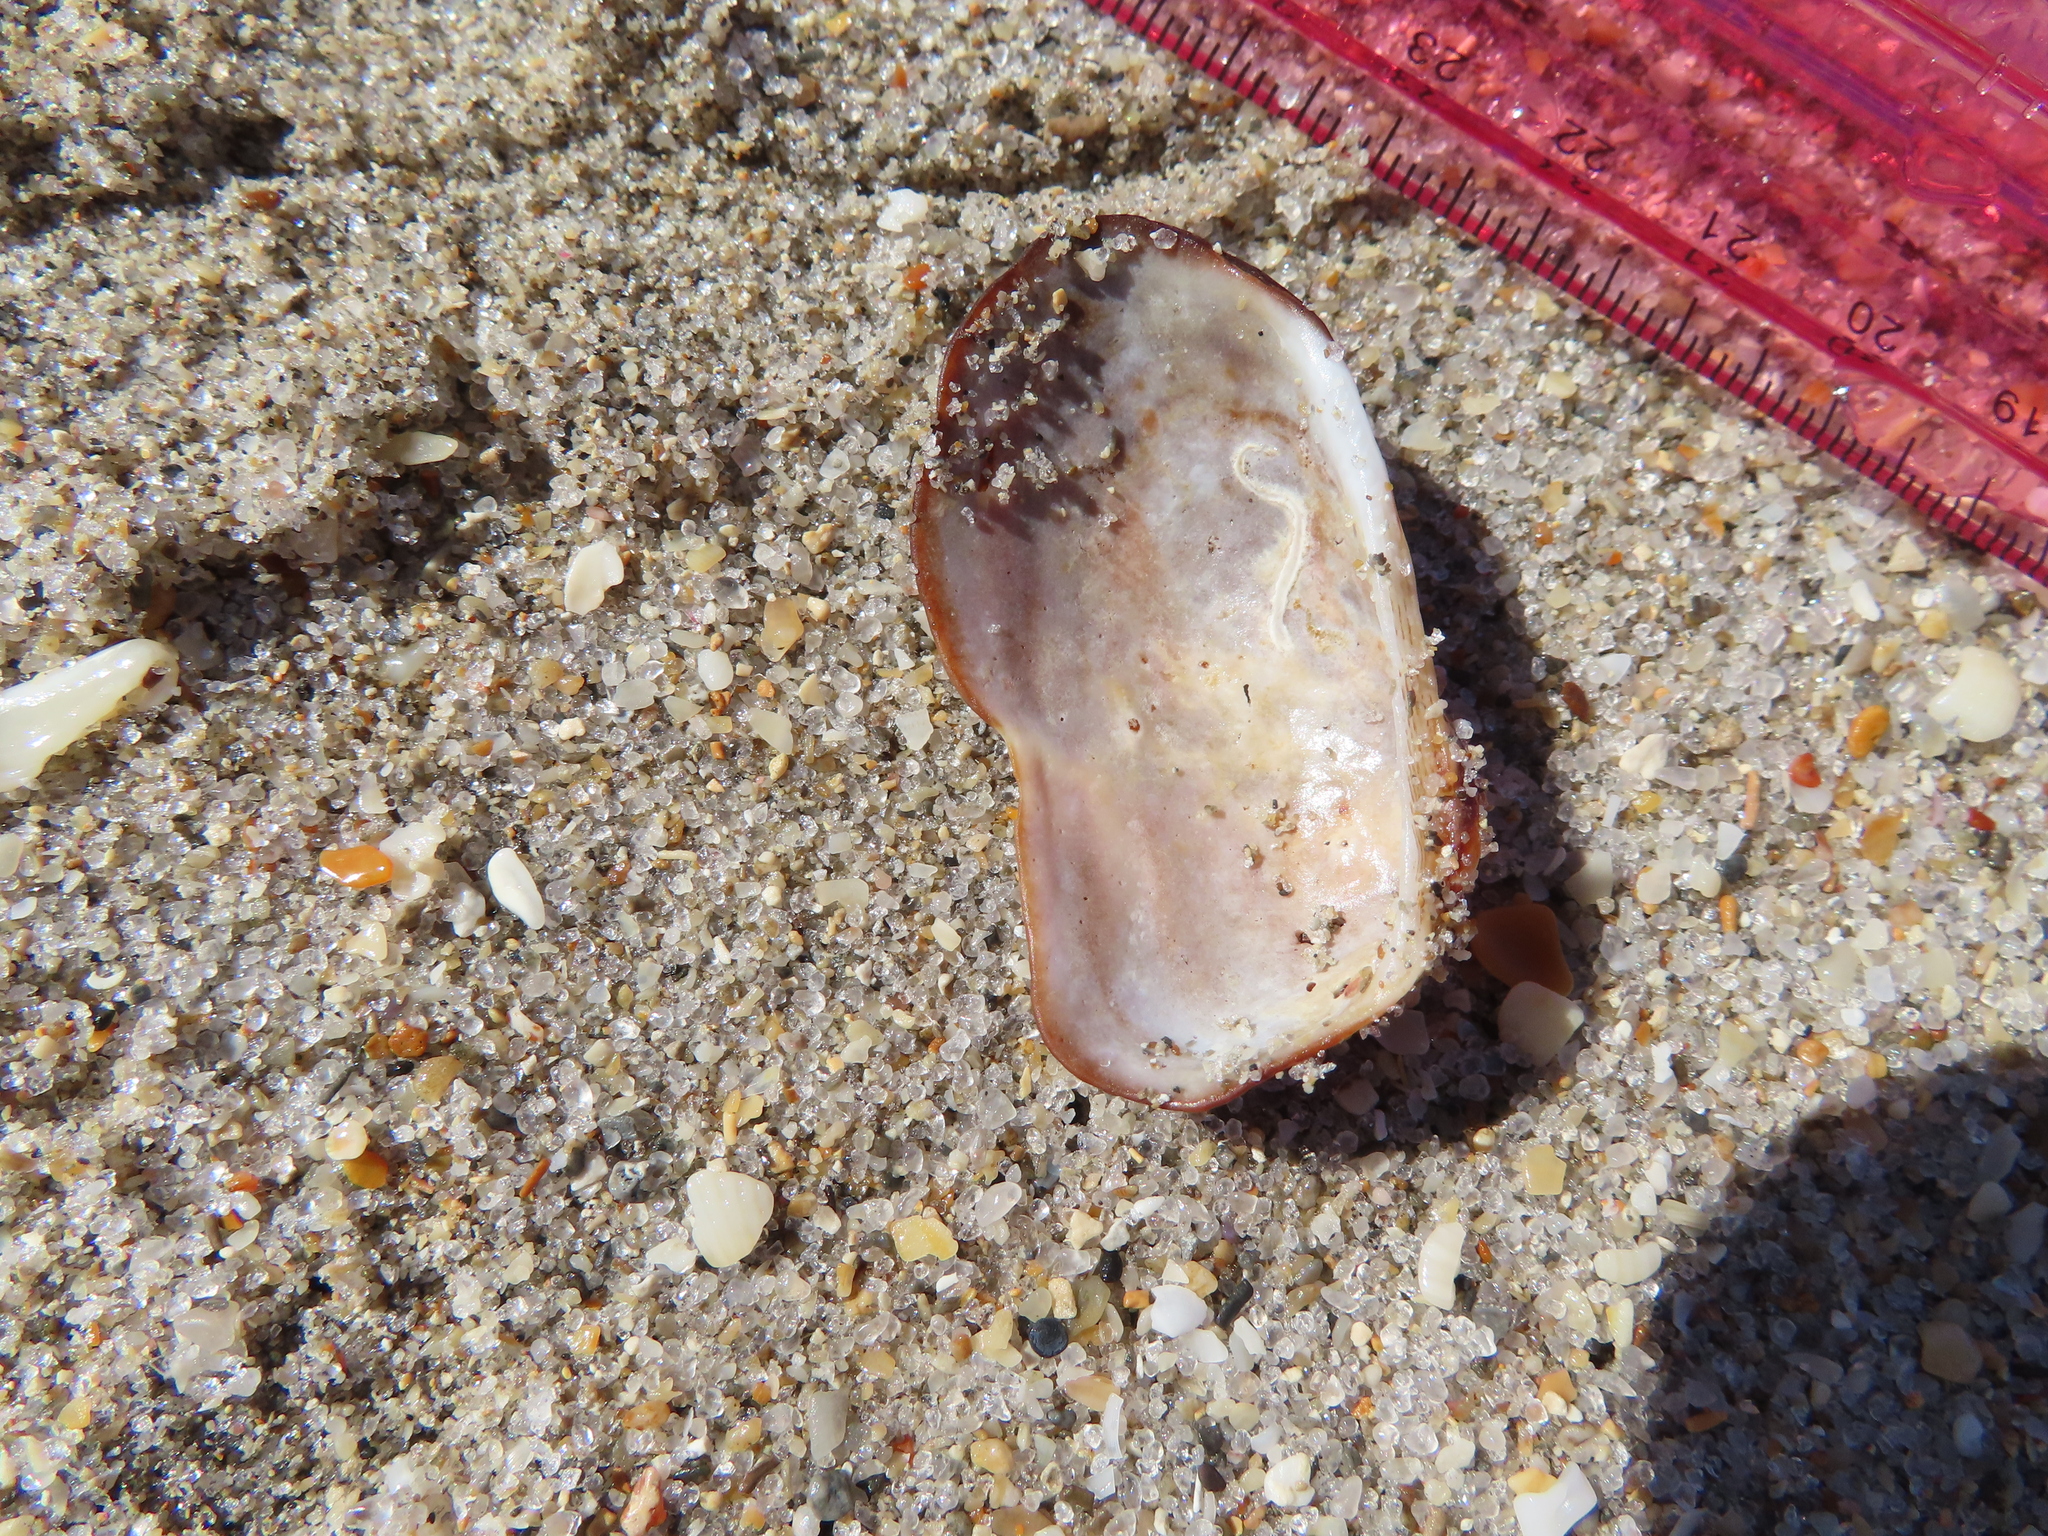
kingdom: Animalia
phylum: Mollusca
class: Bivalvia
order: Arcida
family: Arcidae
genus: Barbatia
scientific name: Barbatia domingensis
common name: White miniature ark
